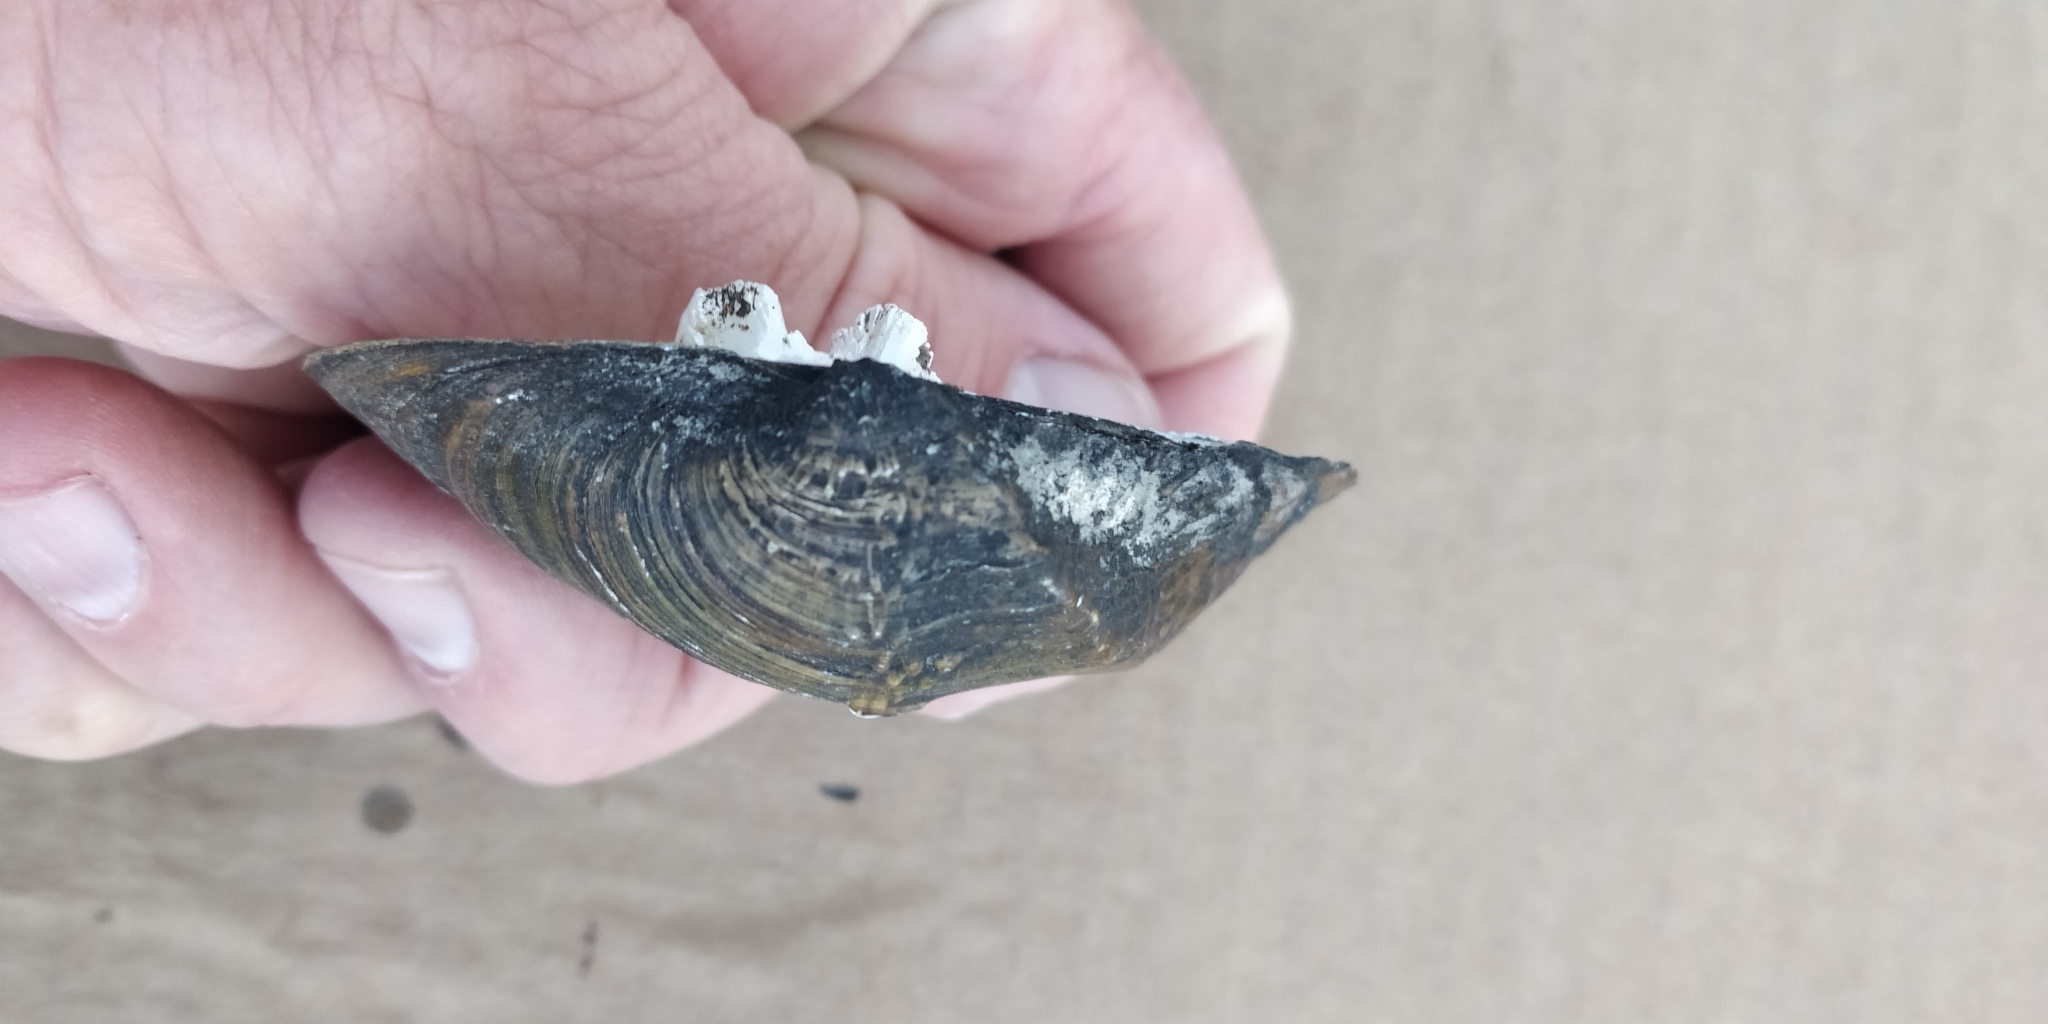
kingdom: Animalia
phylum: Mollusca
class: Bivalvia
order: Unionida
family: Unionidae
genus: Quadrula
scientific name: Quadrula quadrula
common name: Mapleleaf
